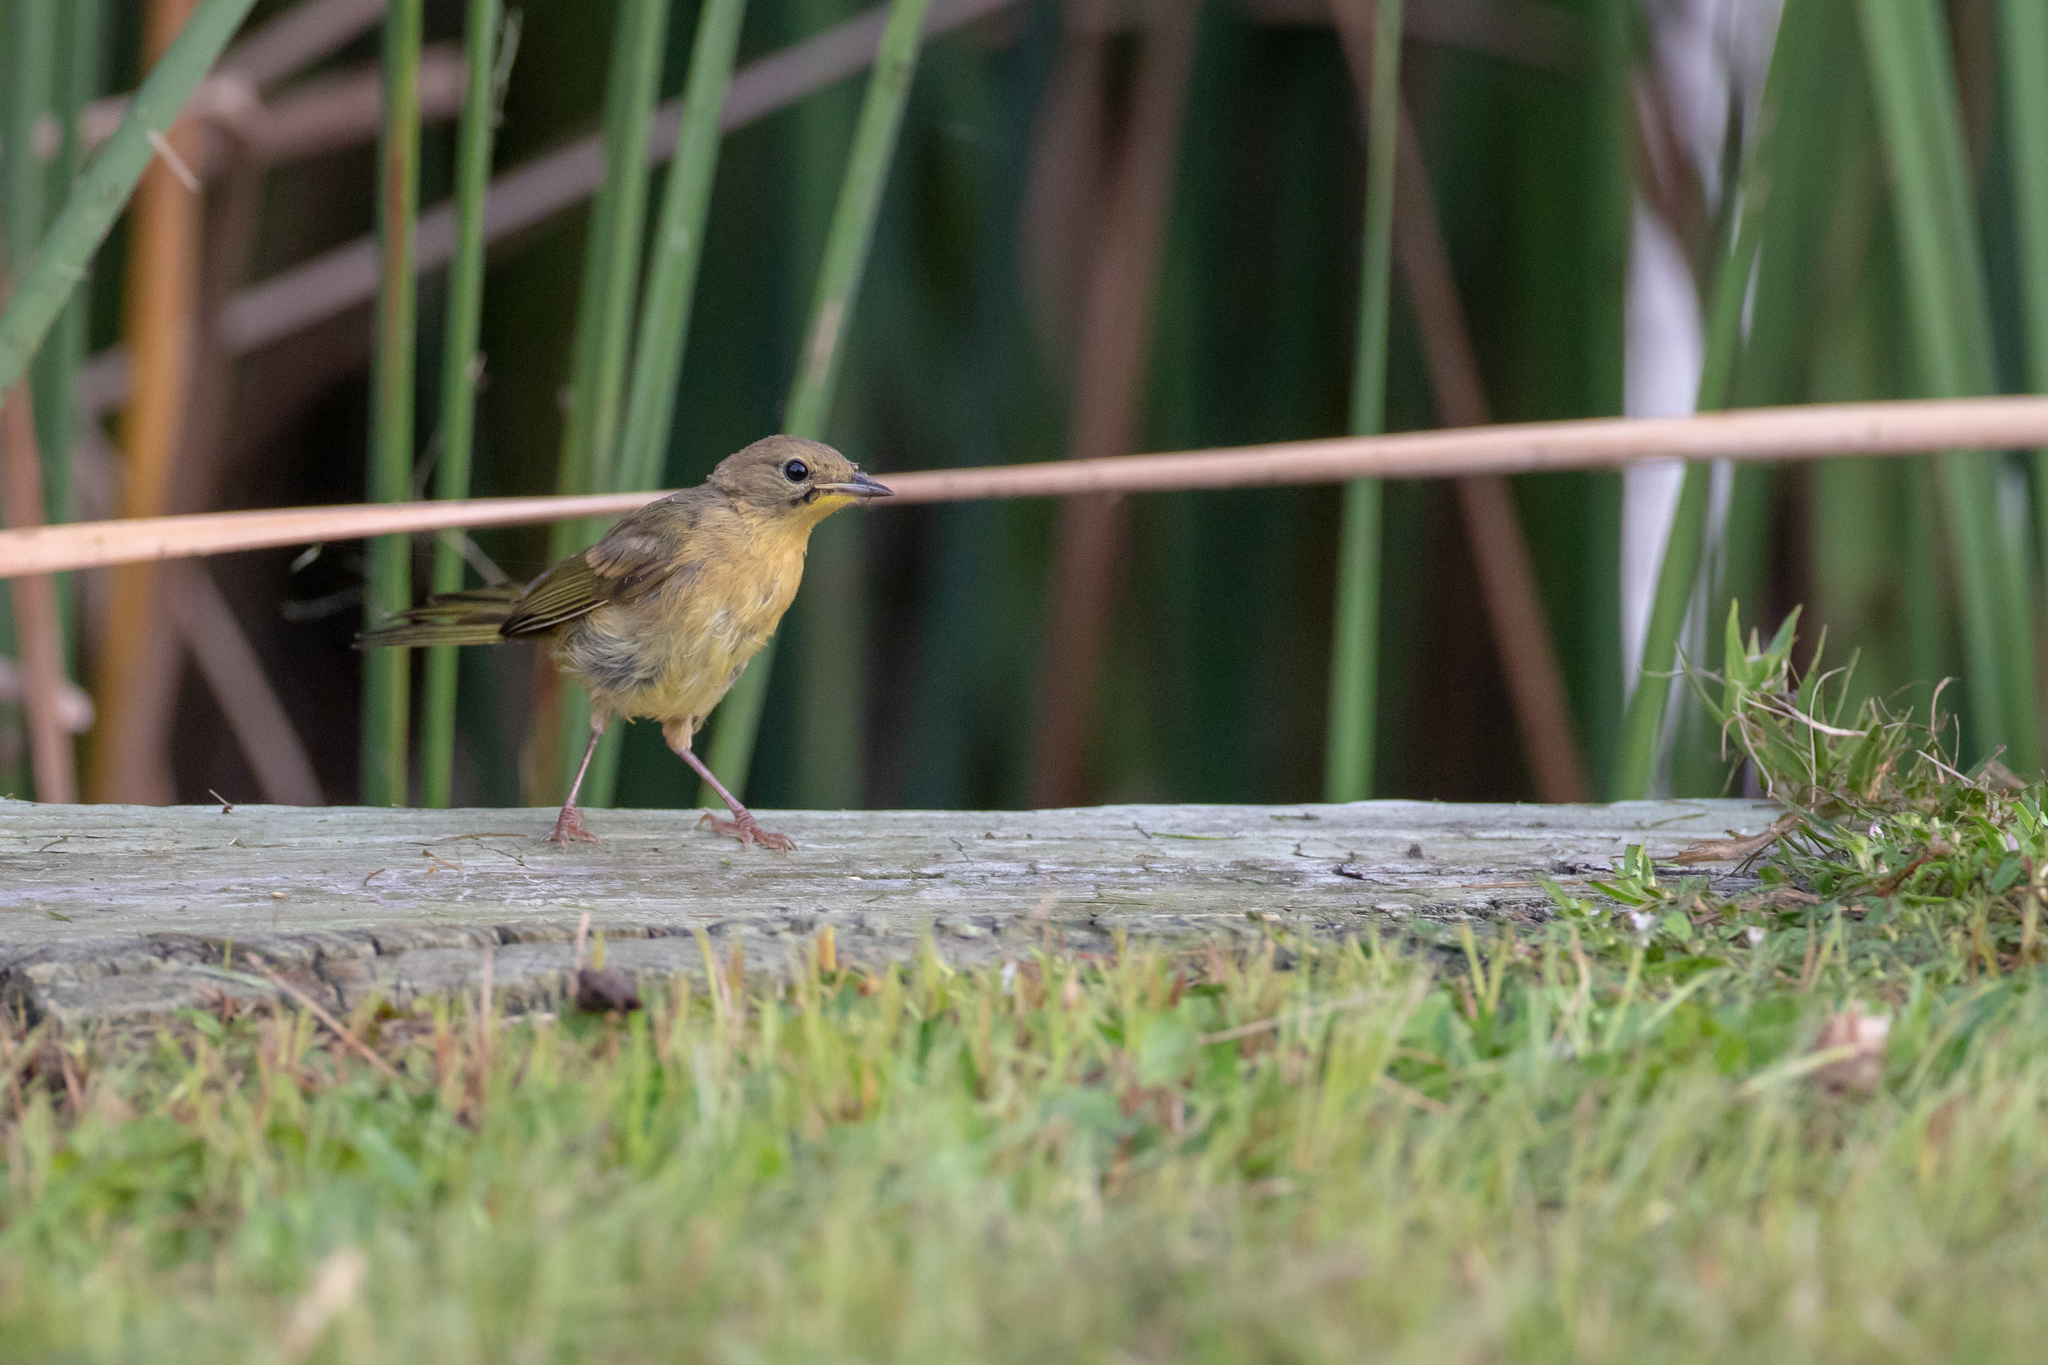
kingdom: Animalia
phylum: Chordata
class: Aves
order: Passeriformes
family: Parulidae
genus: Geothlypis
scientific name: Geothlypis trichas
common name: Common yellowthroat
